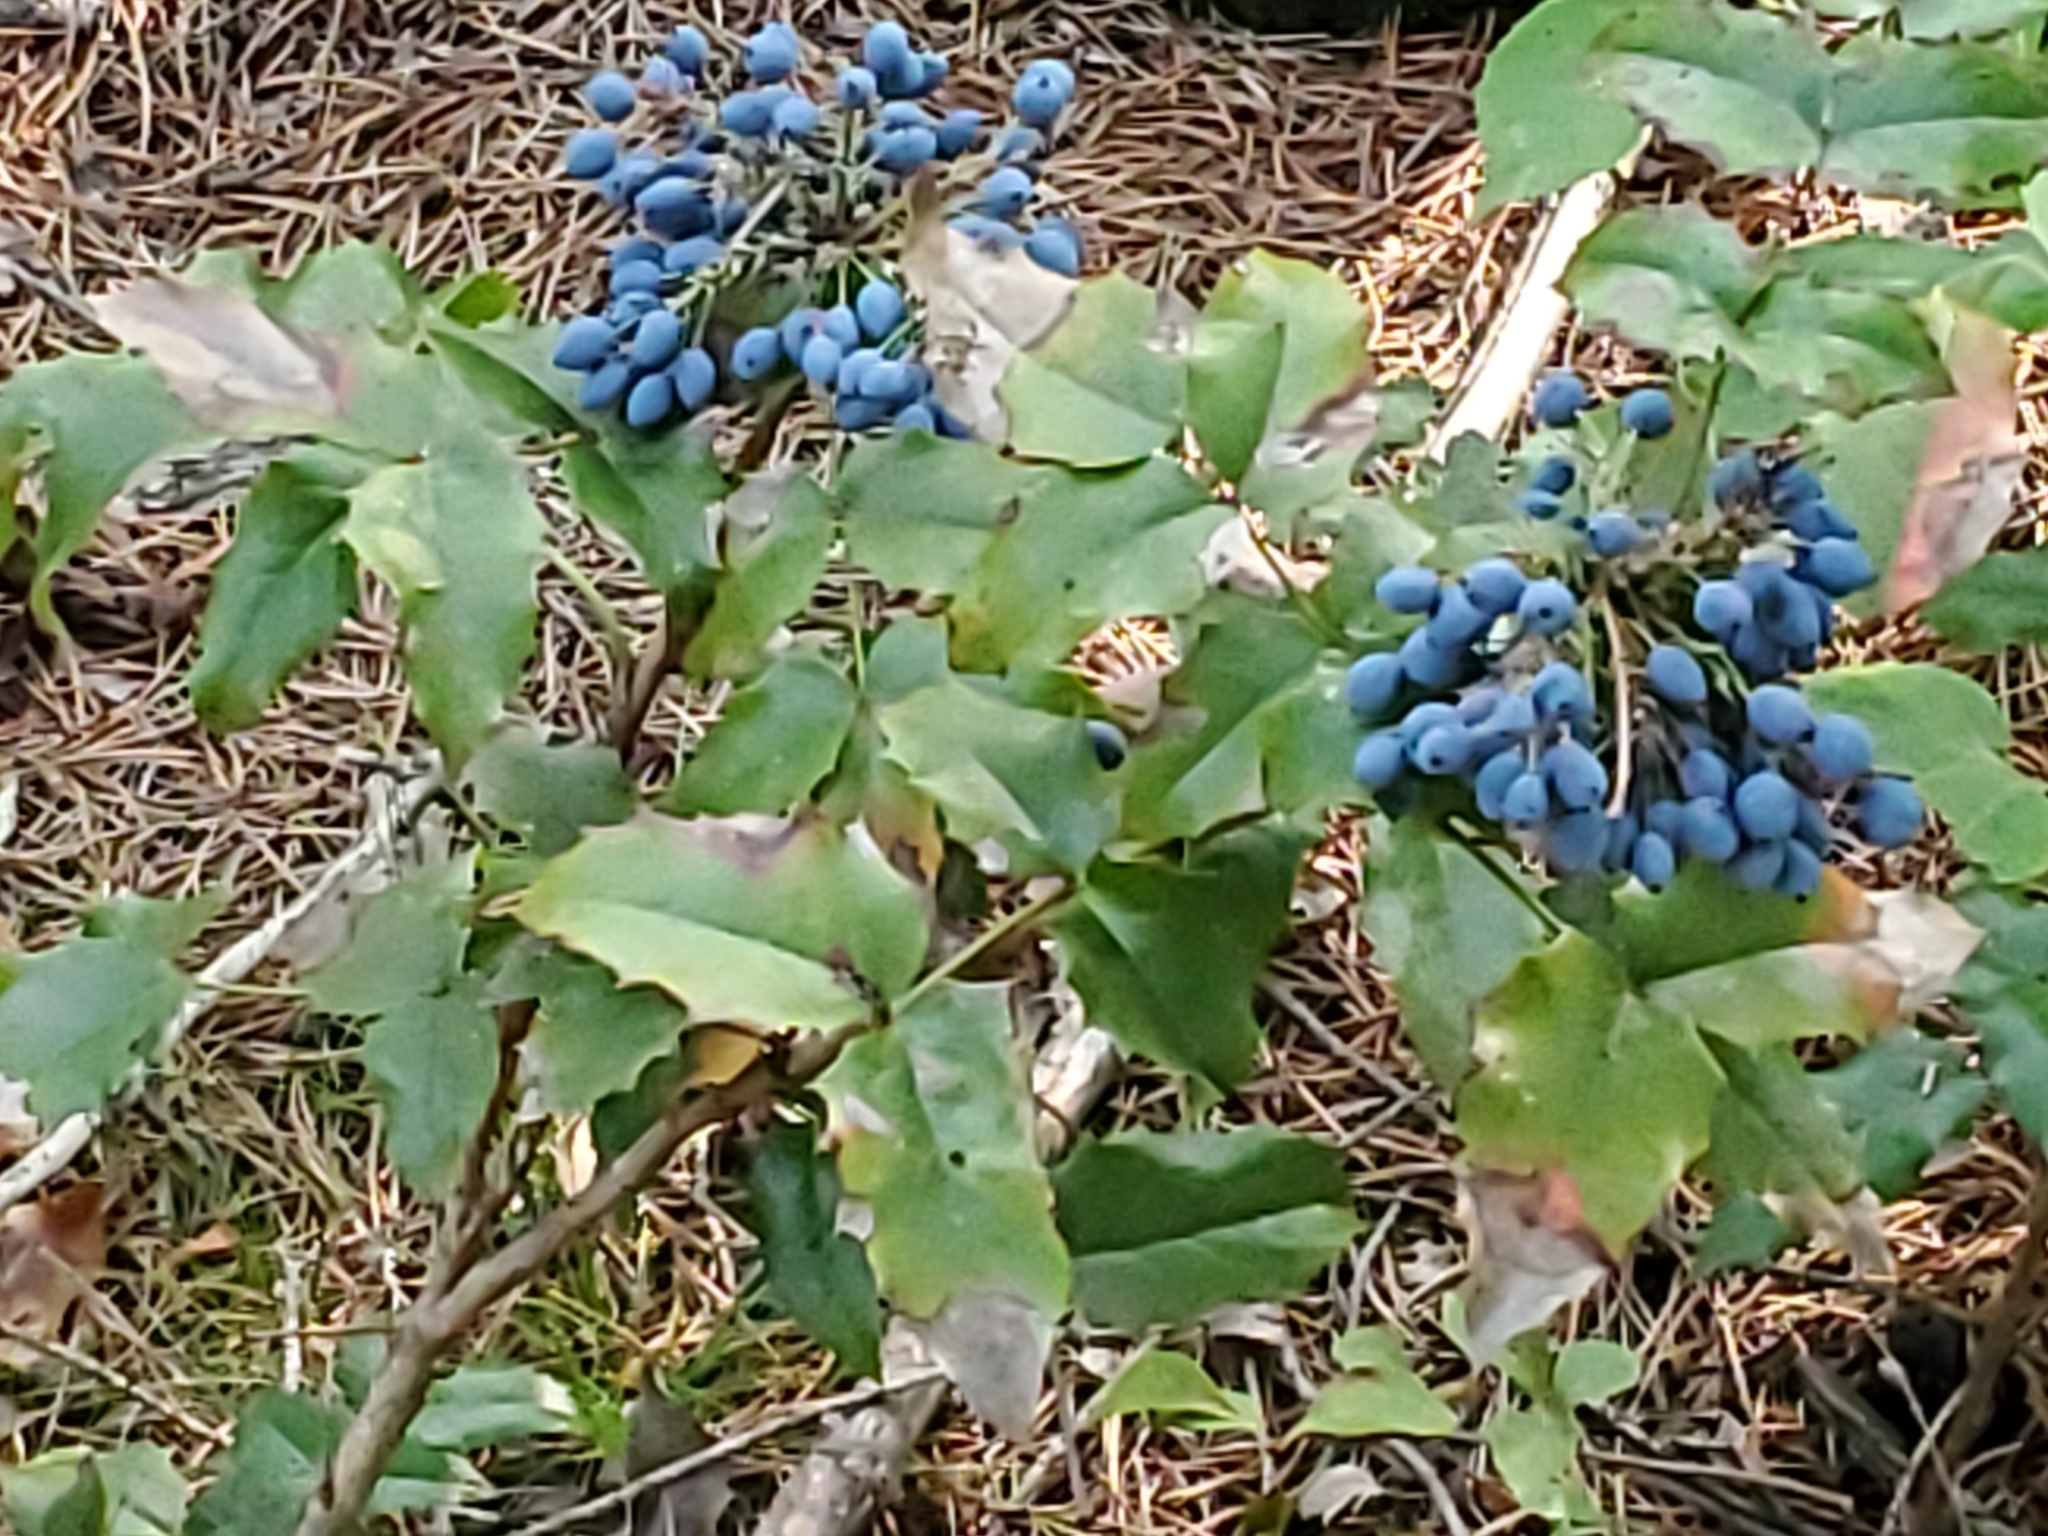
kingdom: Plantae
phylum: Tracheophyta
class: Magnoliopsida
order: Ranunculales
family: Berberidaceae
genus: Mahonia
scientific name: Mahonia aquifolium
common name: Oregon-grape
